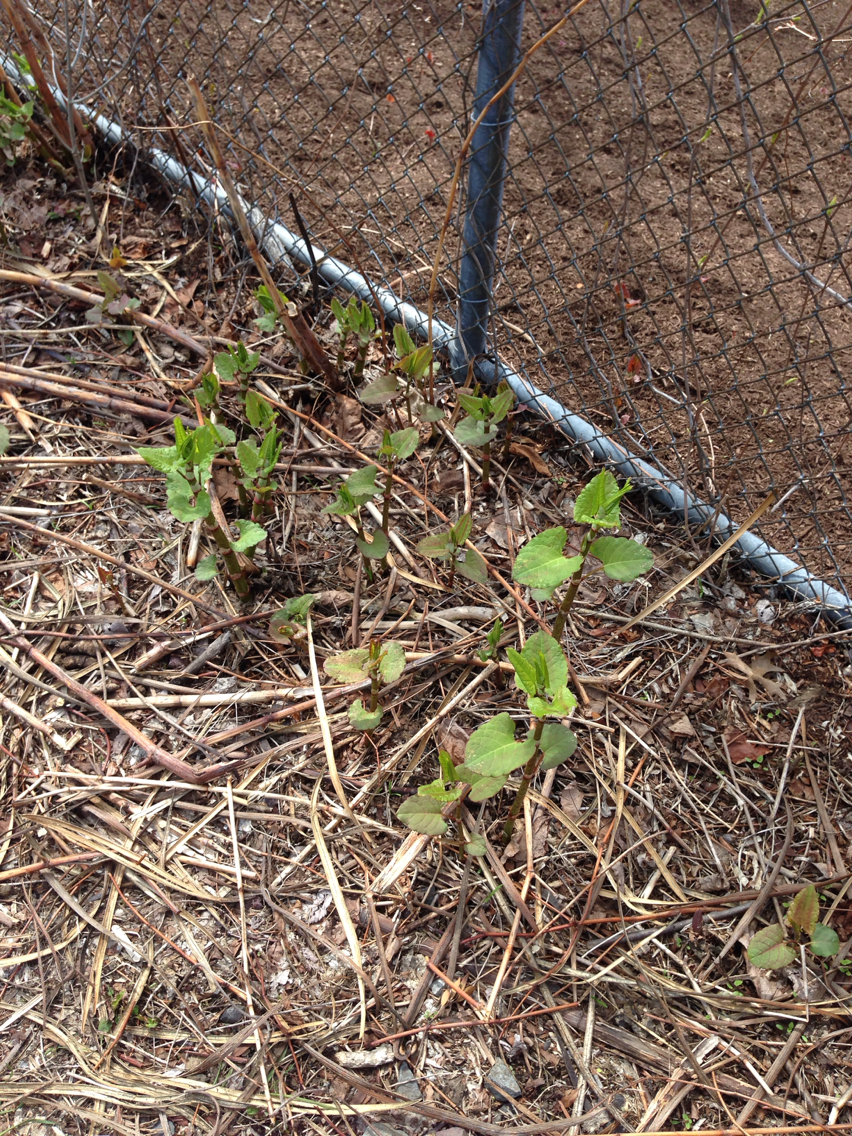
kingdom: Plantae
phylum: Tracheophyta
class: Magnoliopsida
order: Caryophyllales
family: Polygonaceae
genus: Reynoutria
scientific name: Reynoutria japonica
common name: Japanese knotweed
